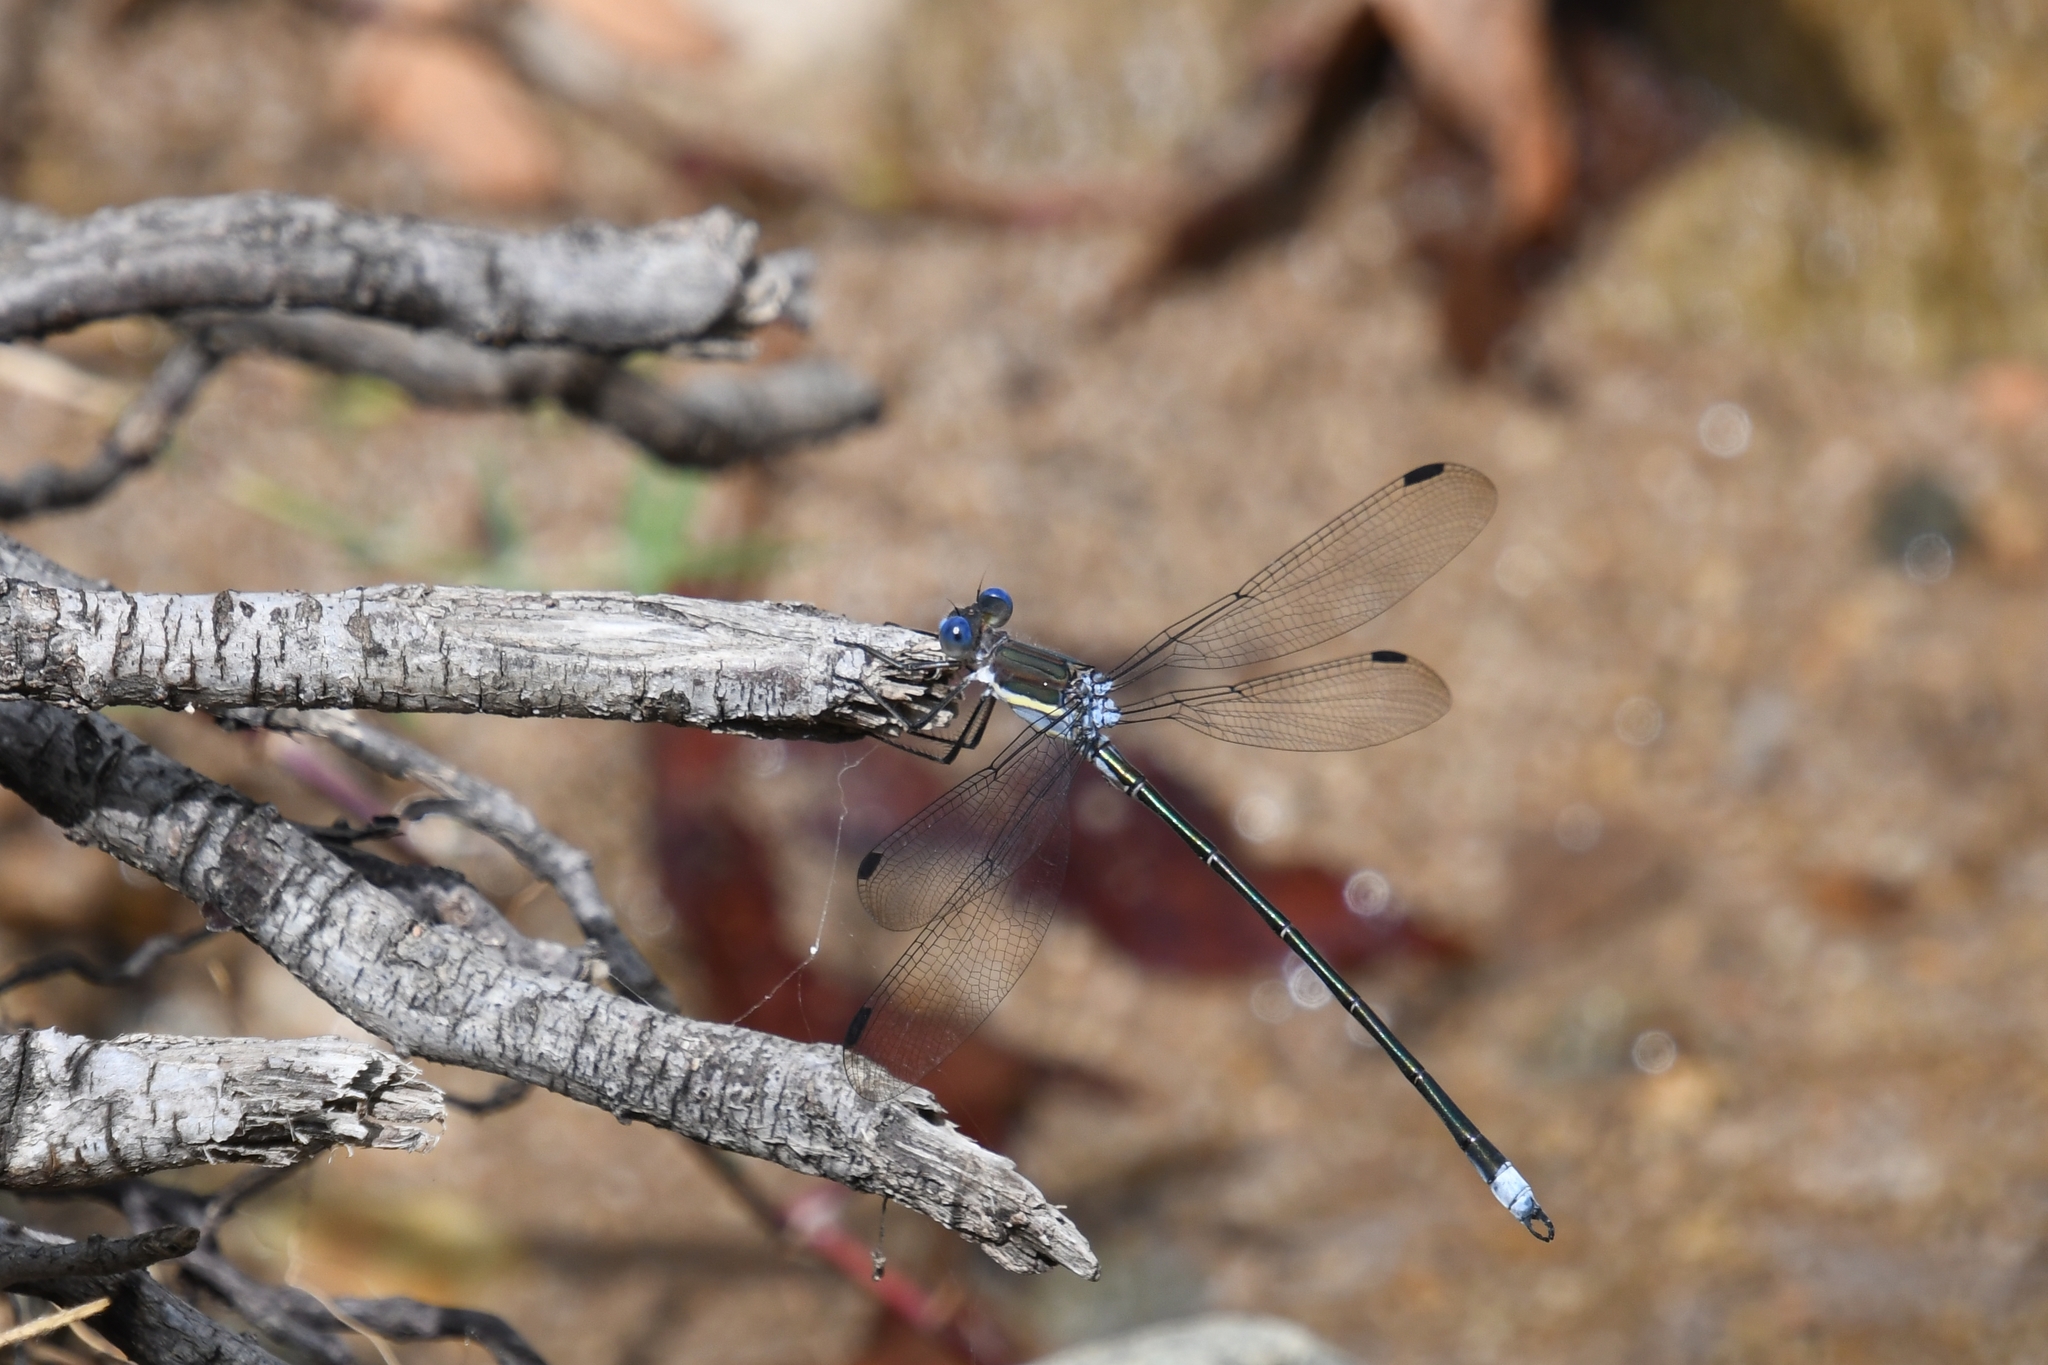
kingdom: Animalia
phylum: Arthropoda
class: Insecta
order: Odonata
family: Lestidae
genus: Archilestes
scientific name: Archilestes grandis
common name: Great spreadwing
